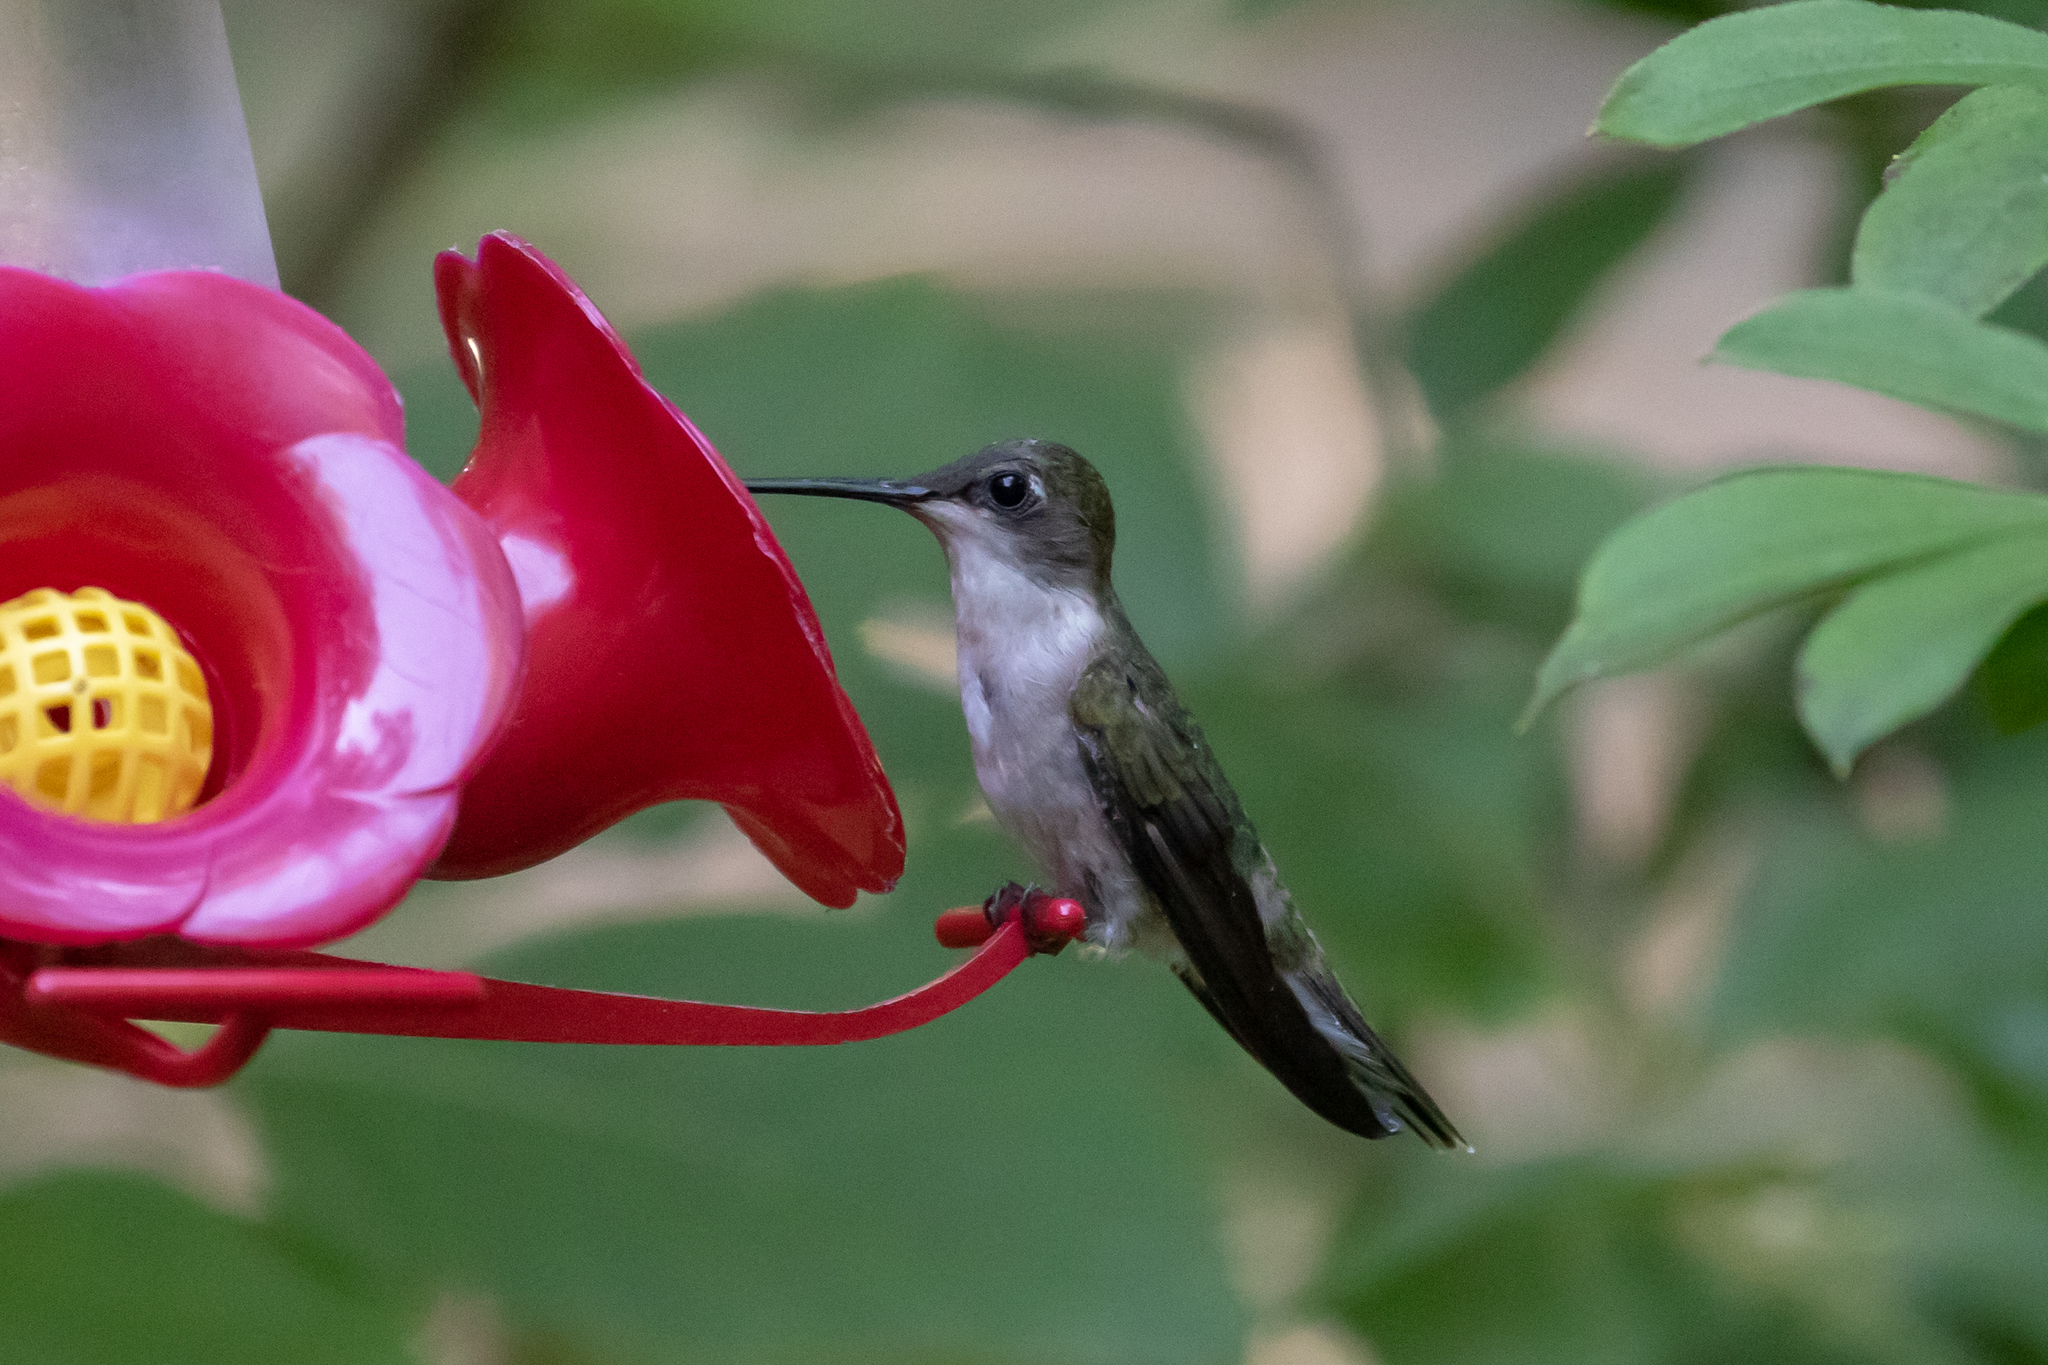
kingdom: Animalia
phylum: Chordata
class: Aves
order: Apodiformes
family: Trochilidae
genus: Archilochus
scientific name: Archilochus colubris
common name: Ruby-throated hummingbird
